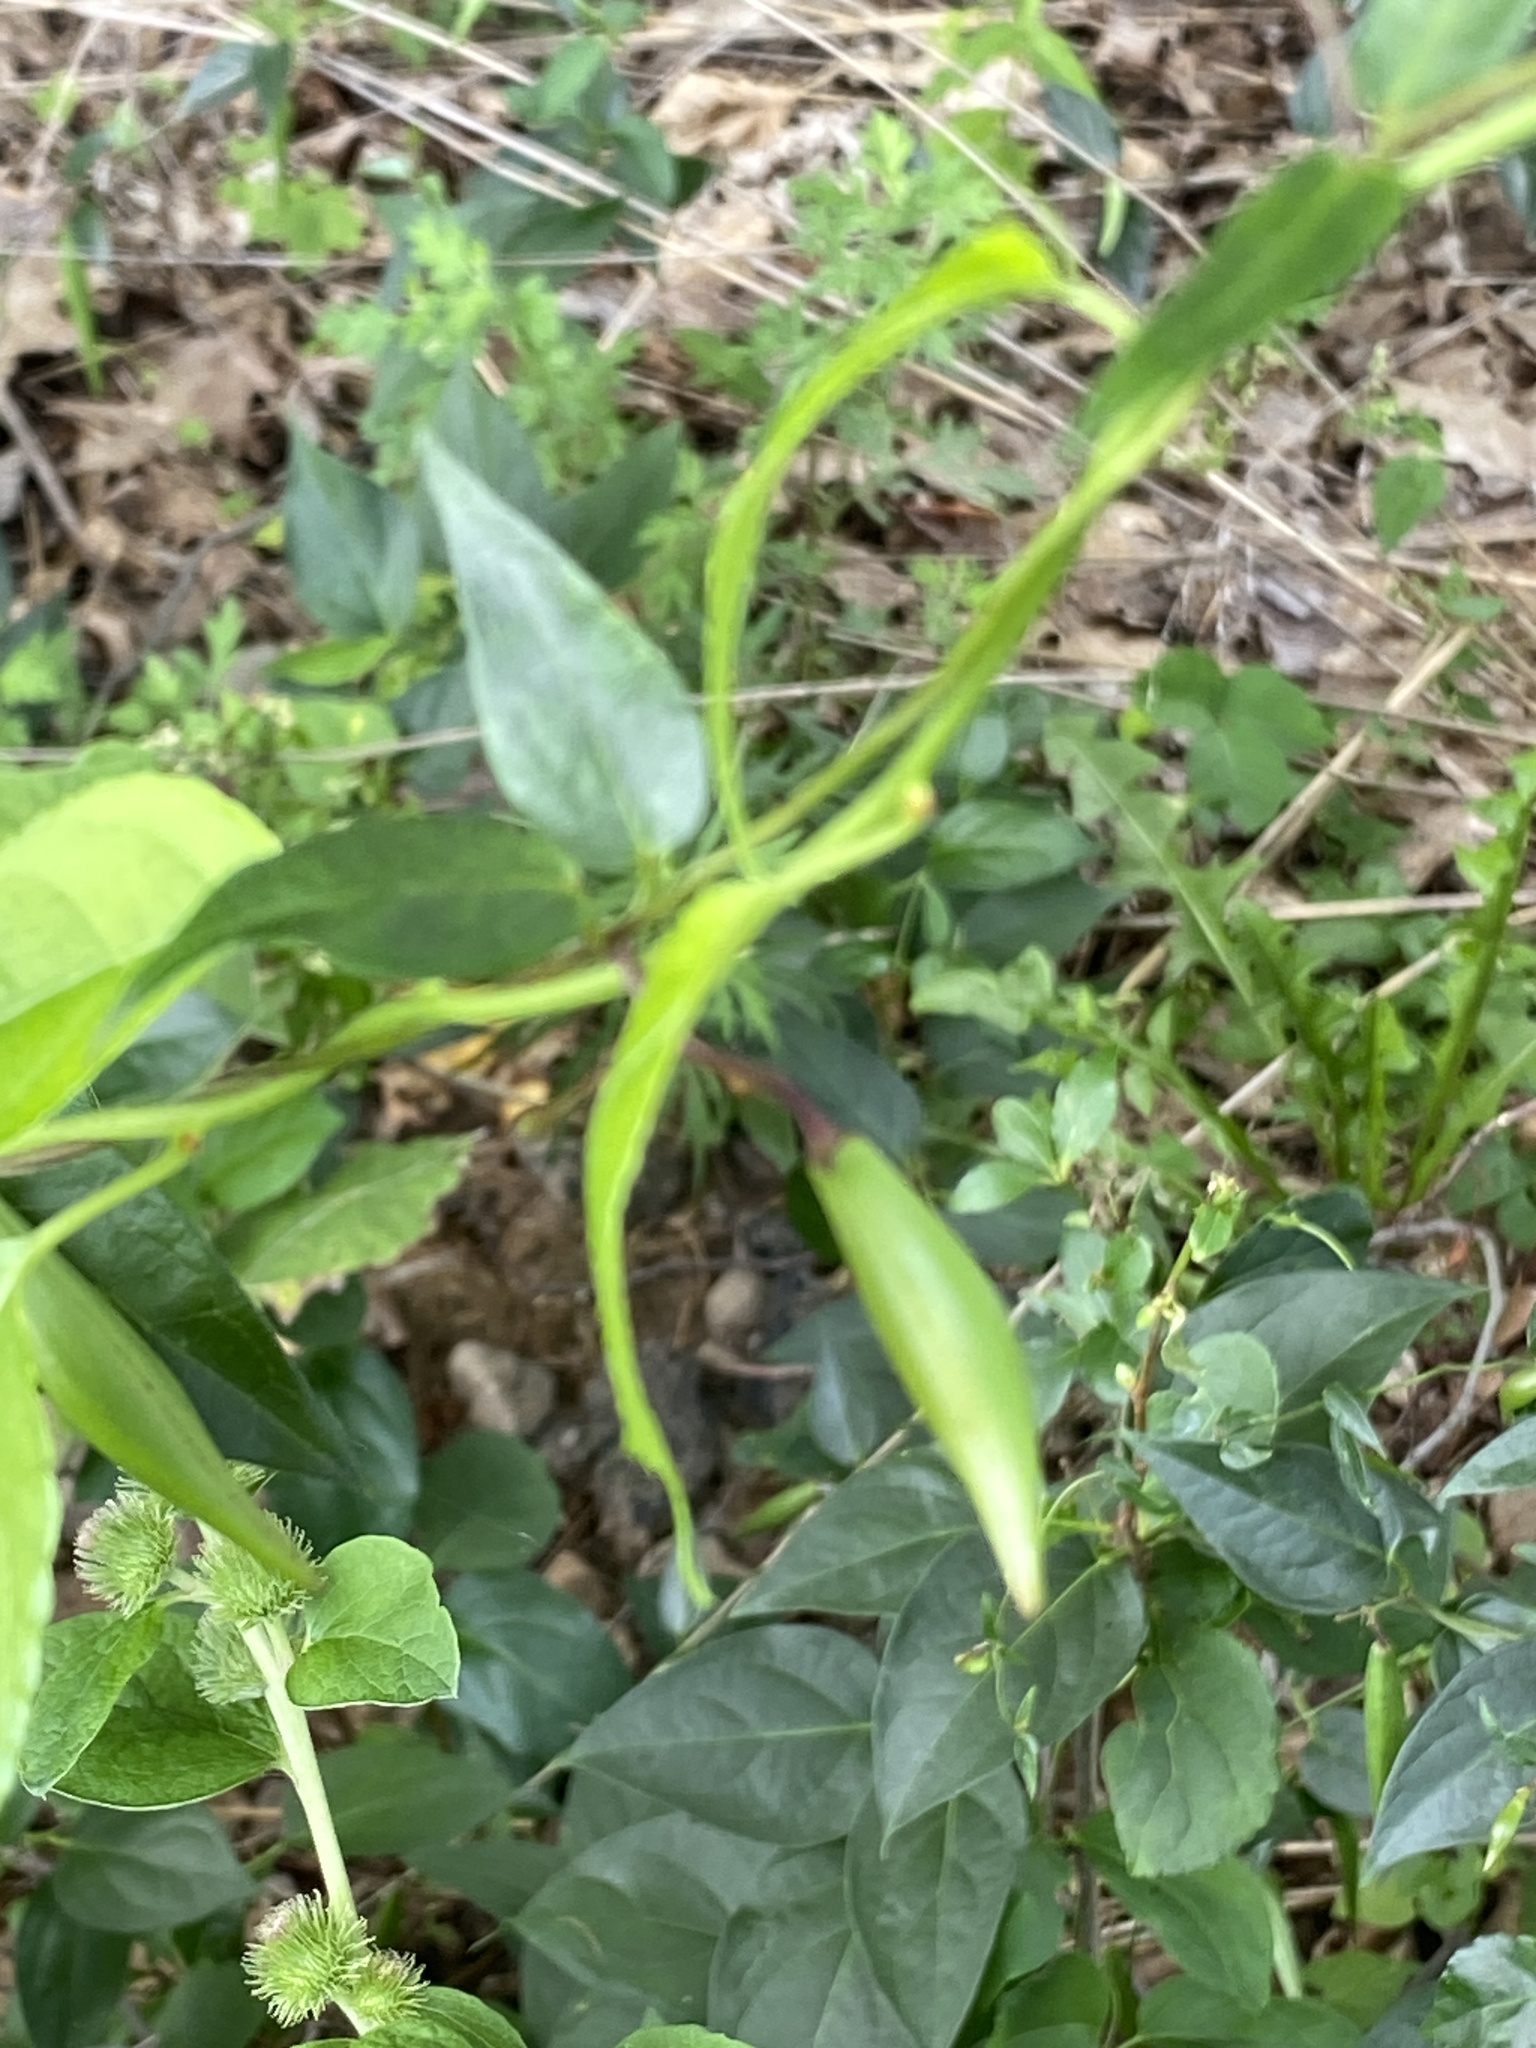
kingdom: Plantae
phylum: Tracheophyta
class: Magnoliopsida
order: Gentianales
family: Apocynaceae
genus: Vincetoxicum
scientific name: Vincetoxicum nigrum
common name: Black swallow-wort
